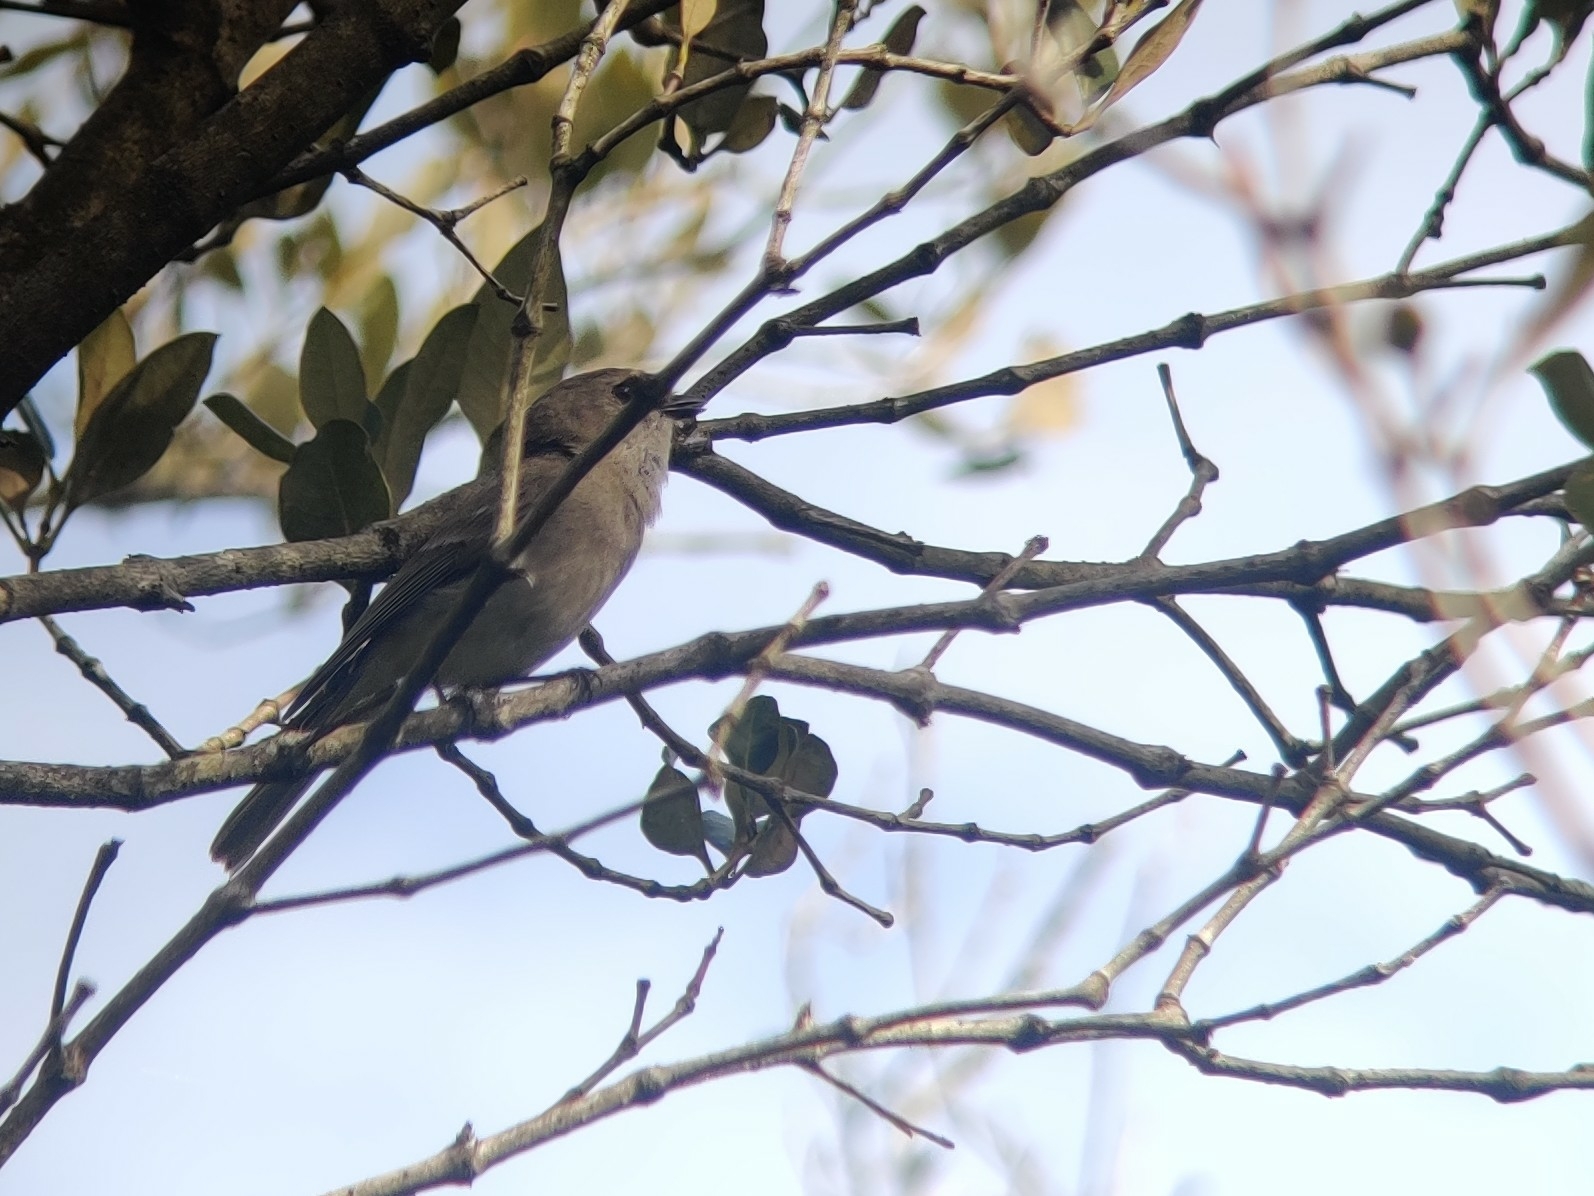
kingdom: Animalia
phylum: Chordata
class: Aves
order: Passeriformes
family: Pachycephalidae
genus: Pachycephala
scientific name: Pachycephala pectoralis
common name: Australian golden whistler
